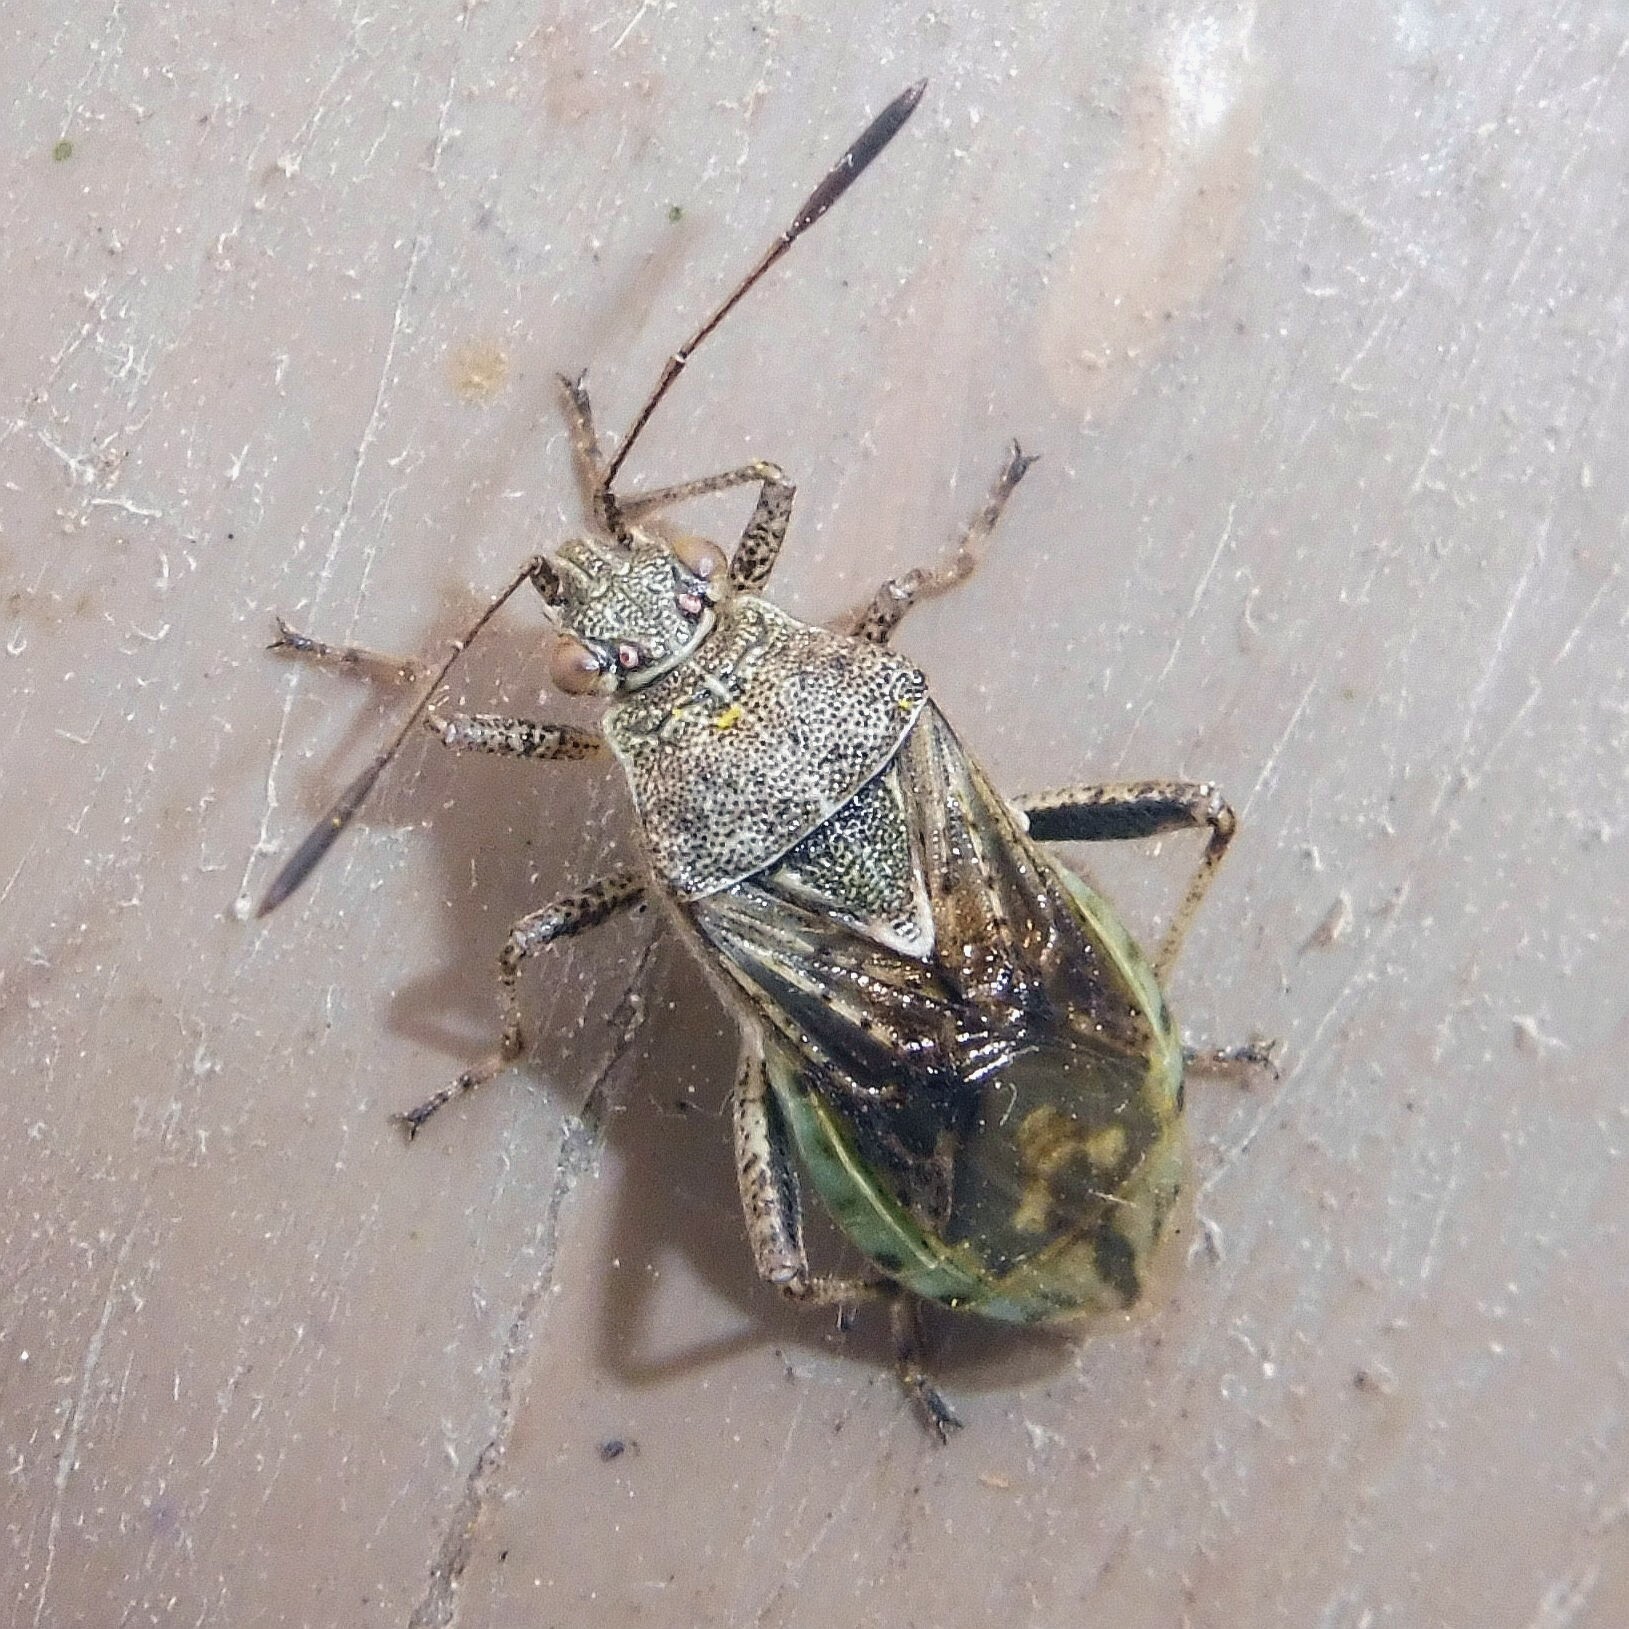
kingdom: Animalia
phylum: Arthropoda
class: Insecta
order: Hemiptera
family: Rhopalidae
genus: Stictopleurus
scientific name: Stictopleurus punctatonervosus
